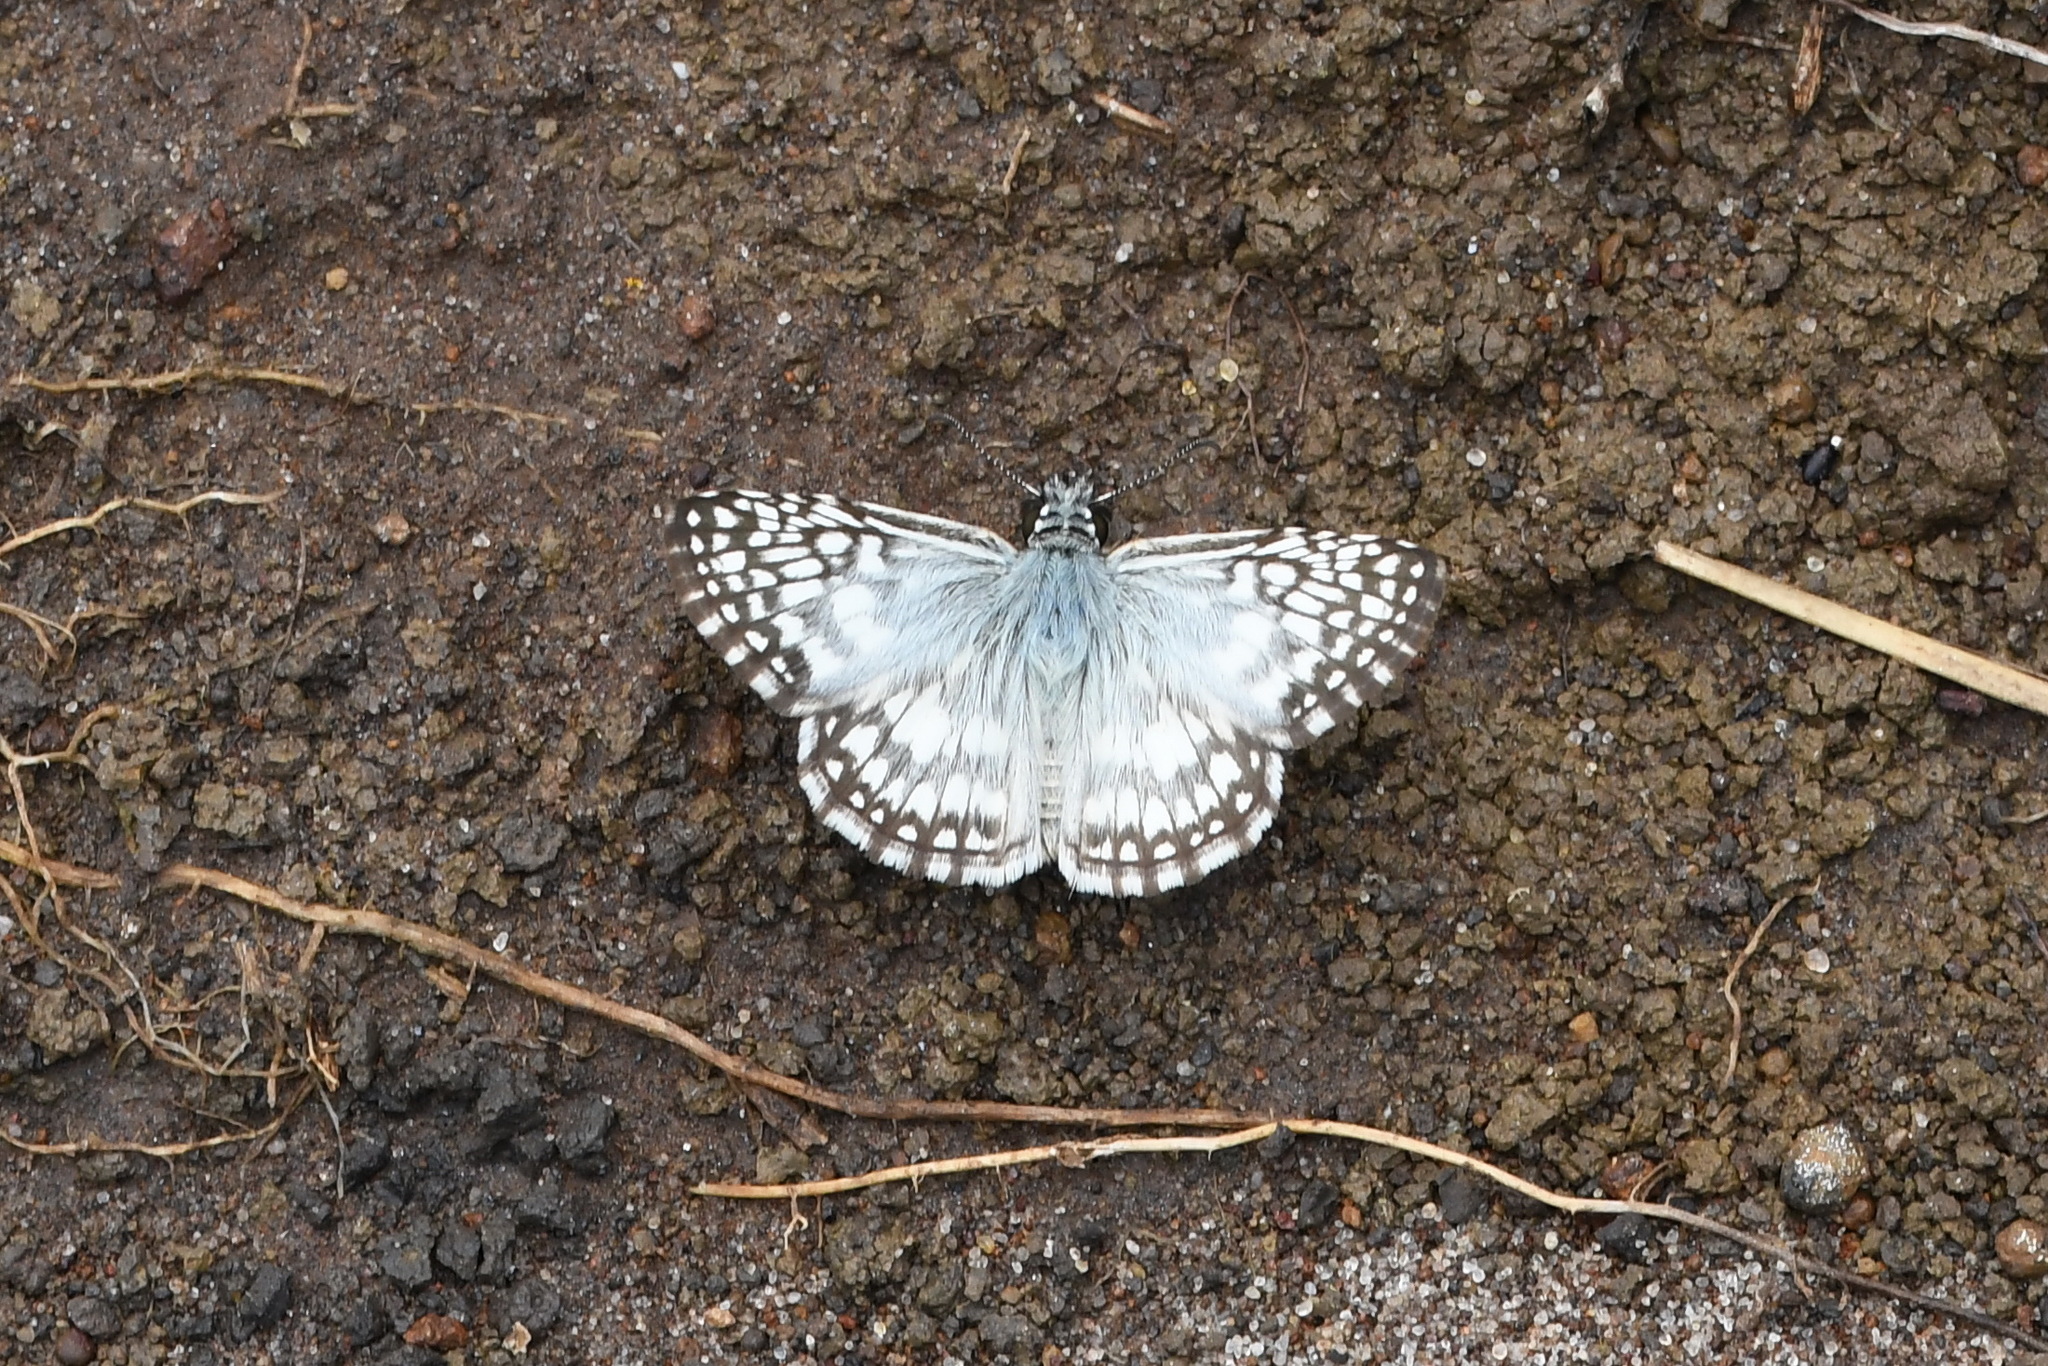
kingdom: Animalia
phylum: Arthropoda
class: Insecta
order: Lepidoptera
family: Hesperiidae
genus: Pyrgus
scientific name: Pyrgus oileus
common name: Tropical checkered-skipper
